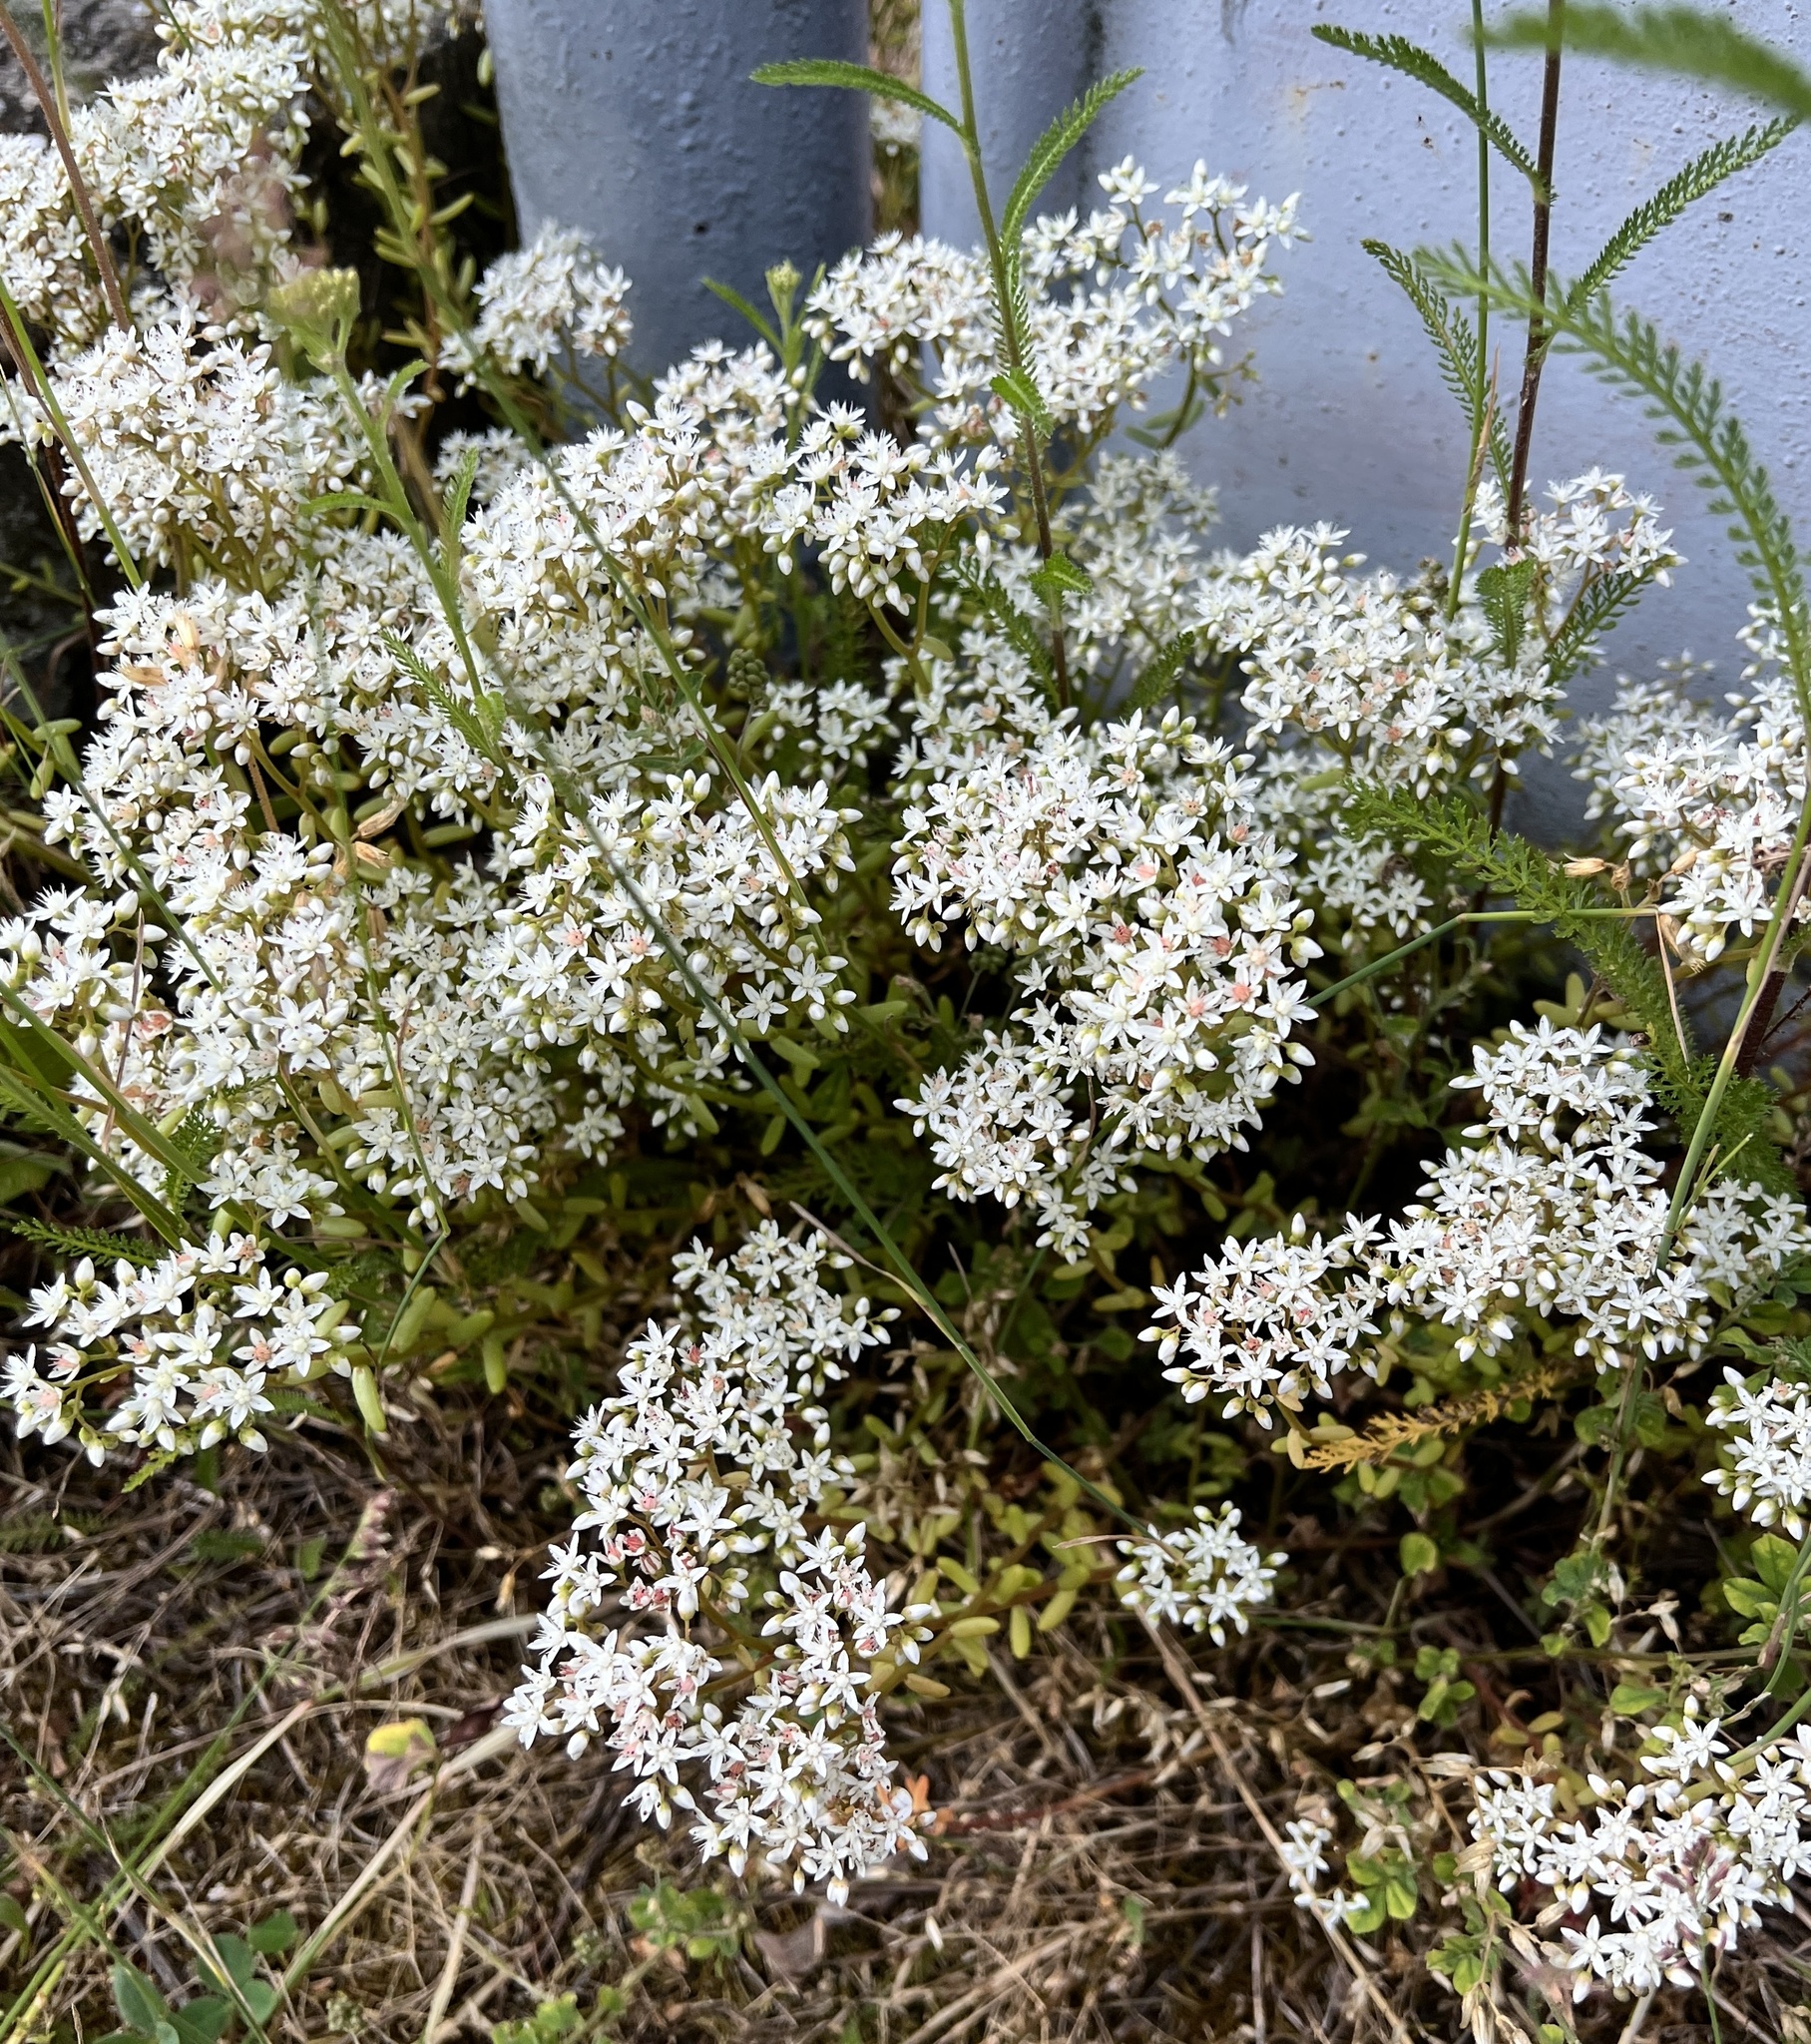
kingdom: Plantae
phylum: Tracheophyta
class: Magnoliopsida
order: Saxifragales
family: Crassulaceae
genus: Sedum
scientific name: Sedum album
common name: White stonecrop
